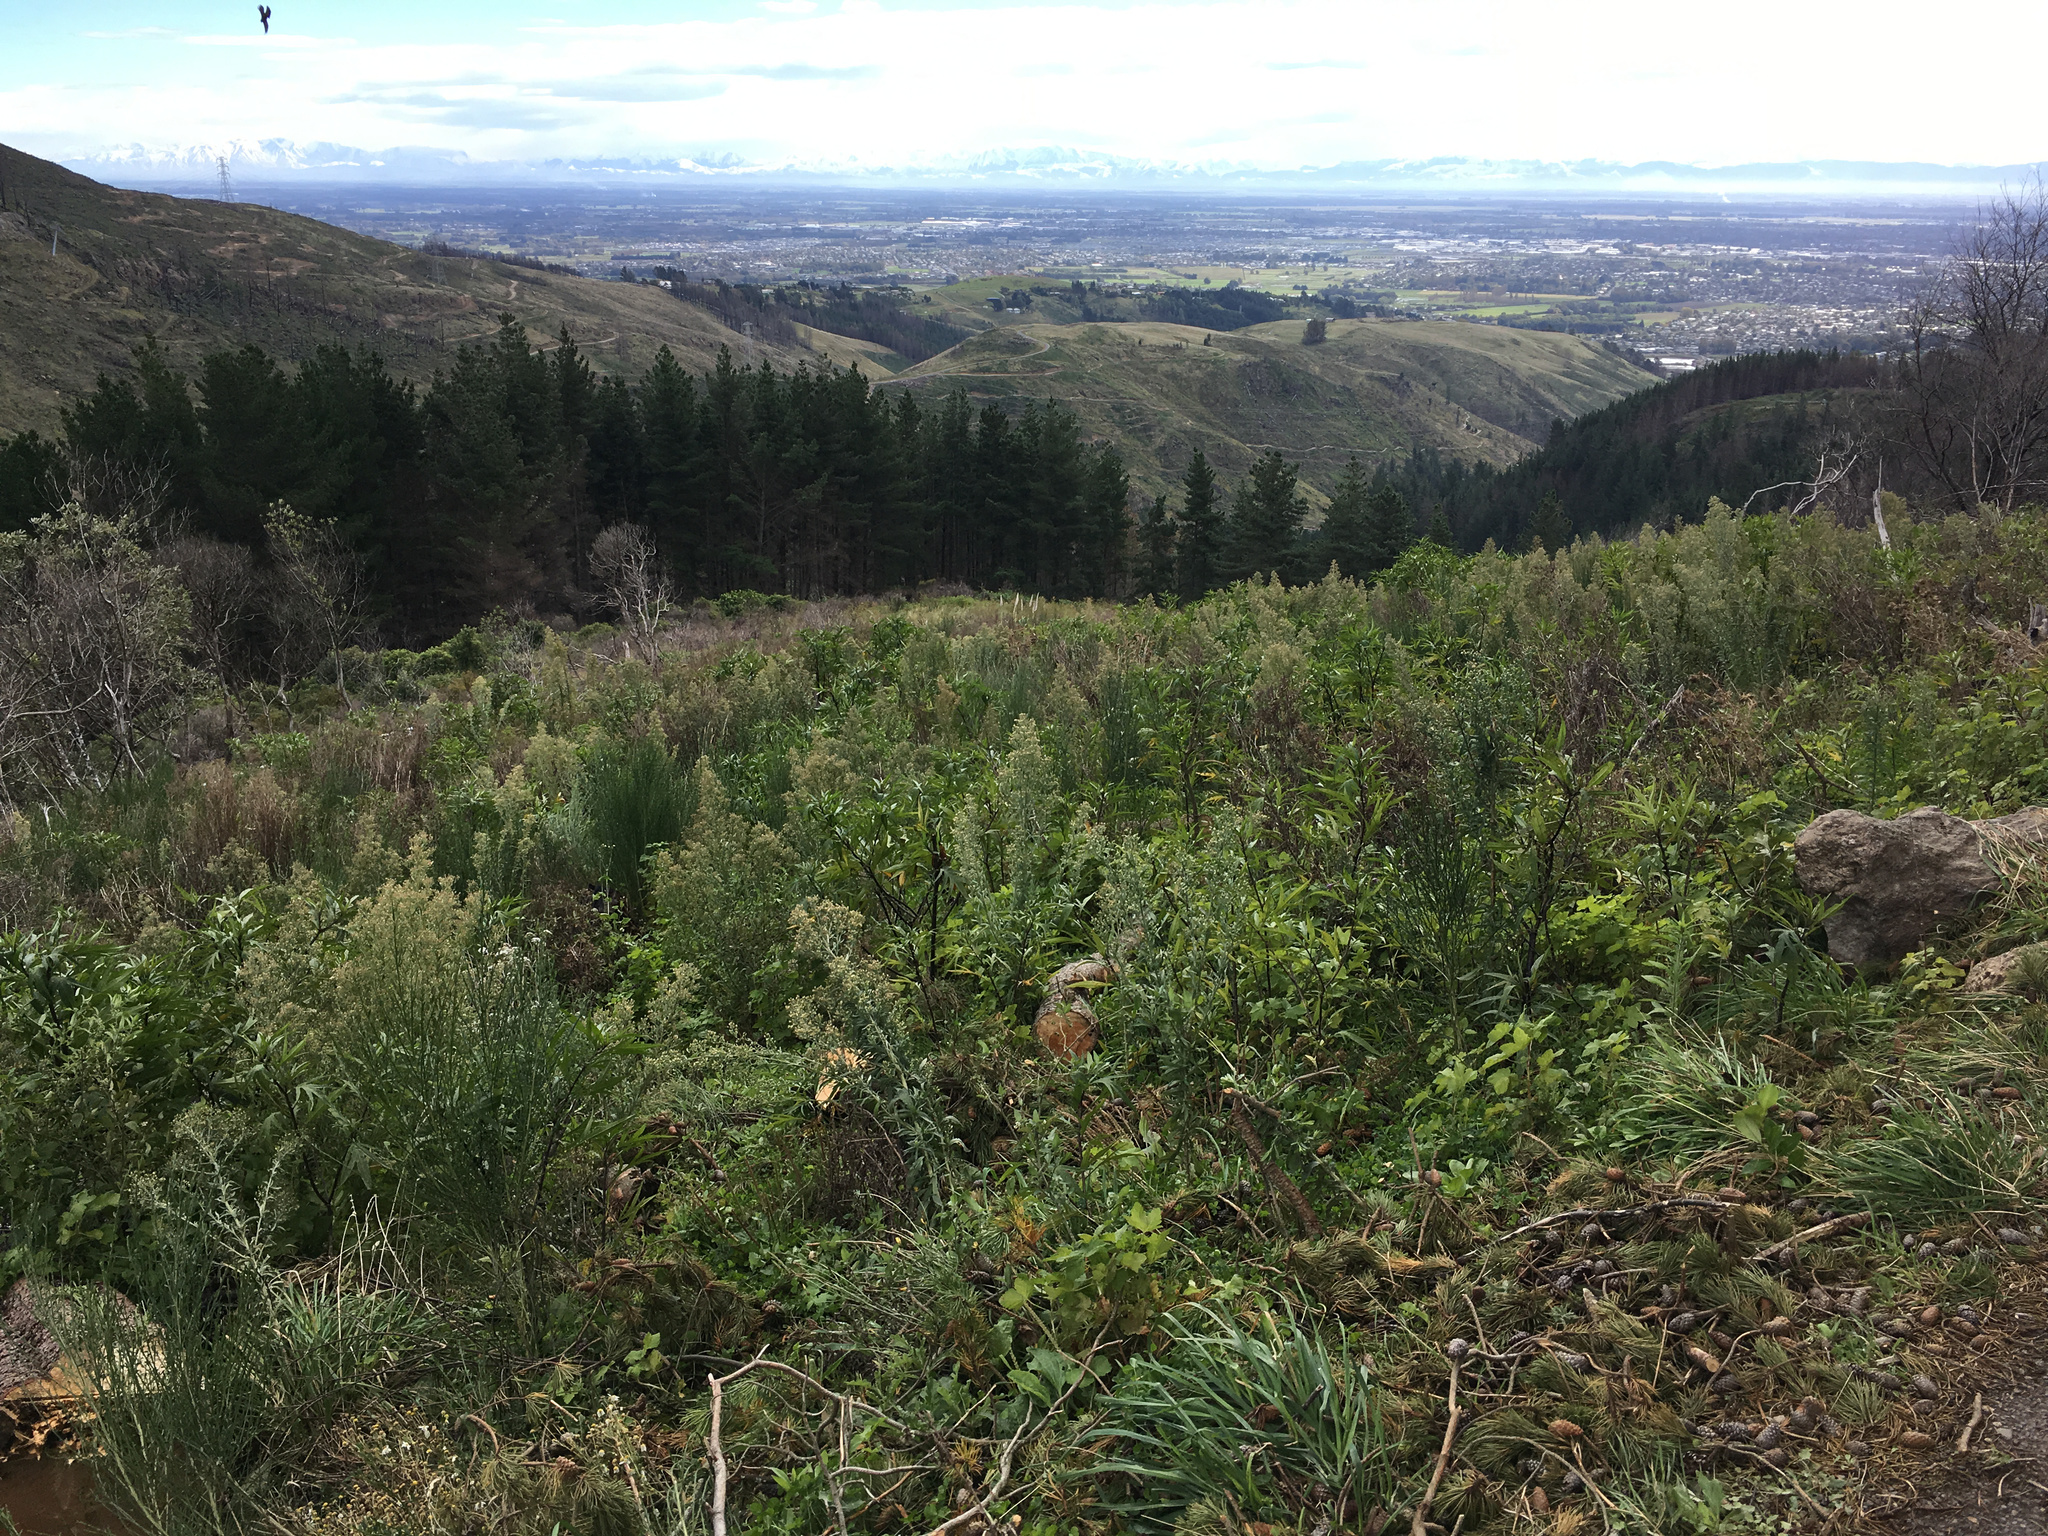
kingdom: Plantae
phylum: Tracheophyta
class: Magnoliopsida
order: Fabales
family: Fabaceae
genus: Cytisus
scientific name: Cytisus scoparius
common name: Scotch broom
